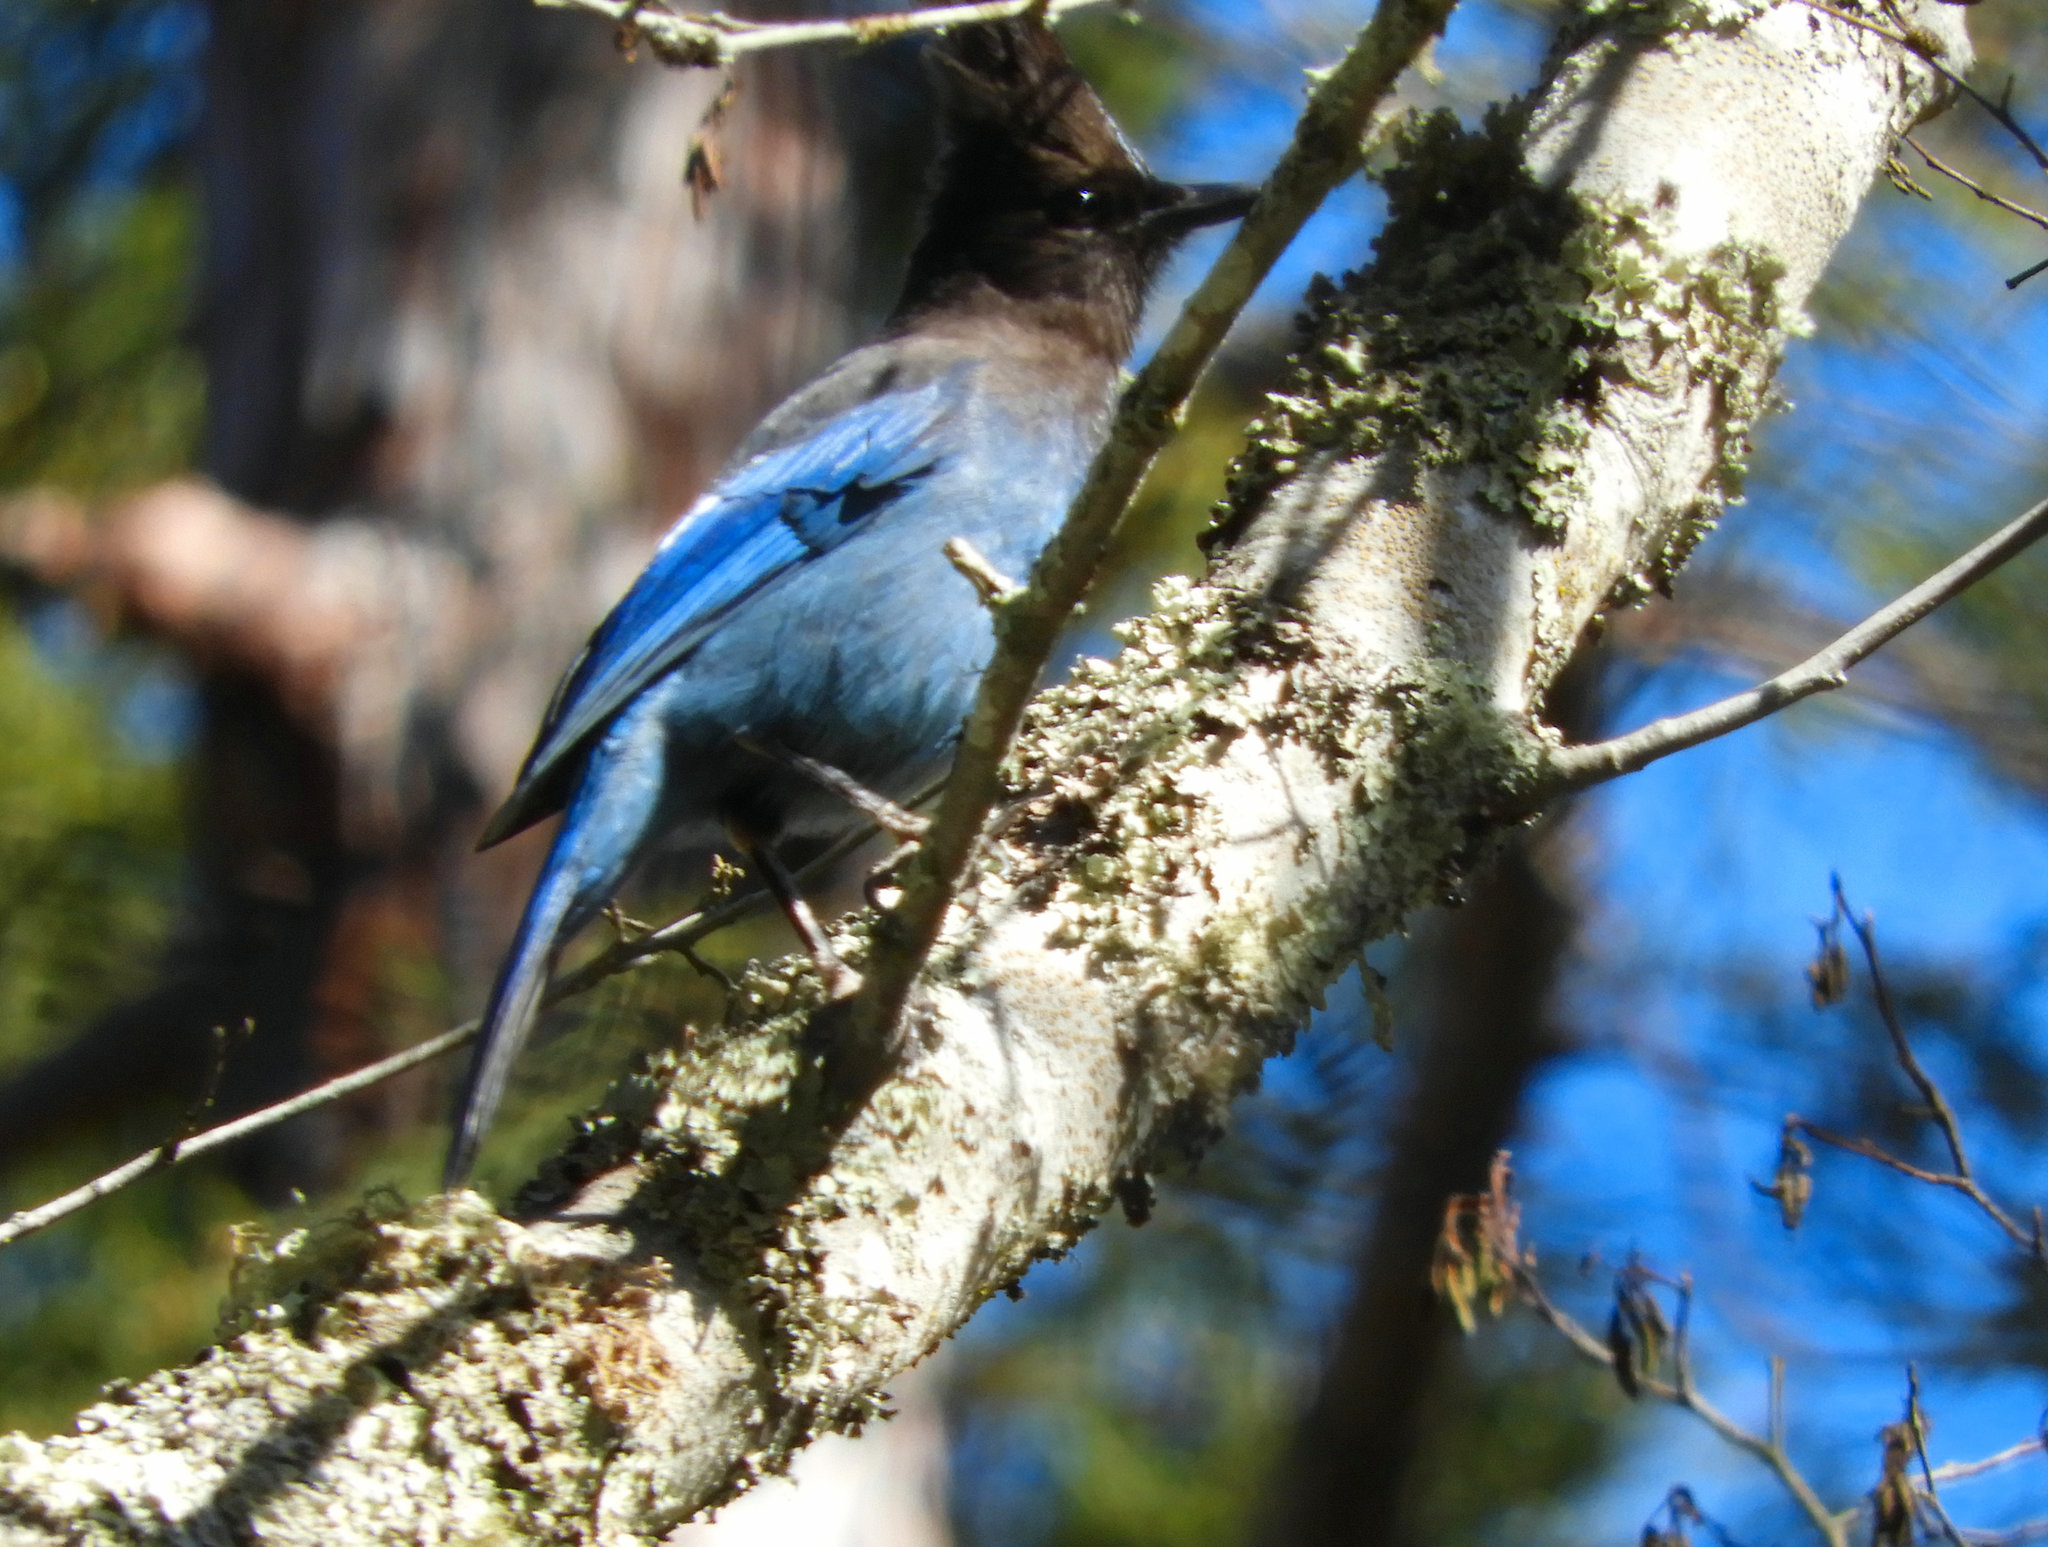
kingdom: Animalia
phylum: Chordata
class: Aves
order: Passeriformes
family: Corvidae
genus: Cyanocitta
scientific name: Cyanocitta stelleri
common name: Steller's jay
